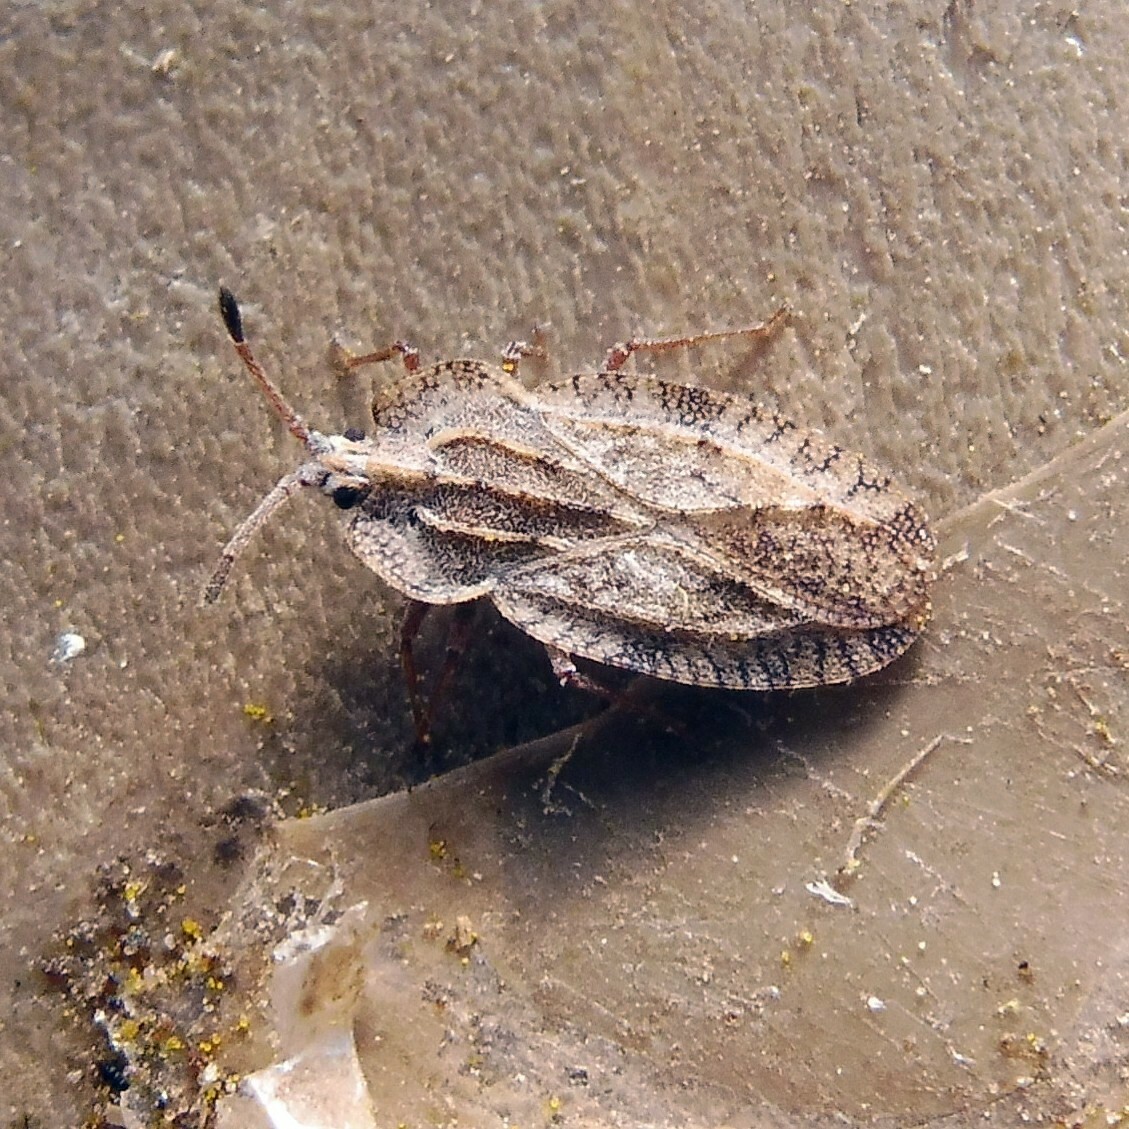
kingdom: Animalia
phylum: Arthropoda
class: Insecta
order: Hemiptera
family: Tingidae
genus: Tingis
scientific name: Tingis ampliata
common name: Creeping thistle lacebug
